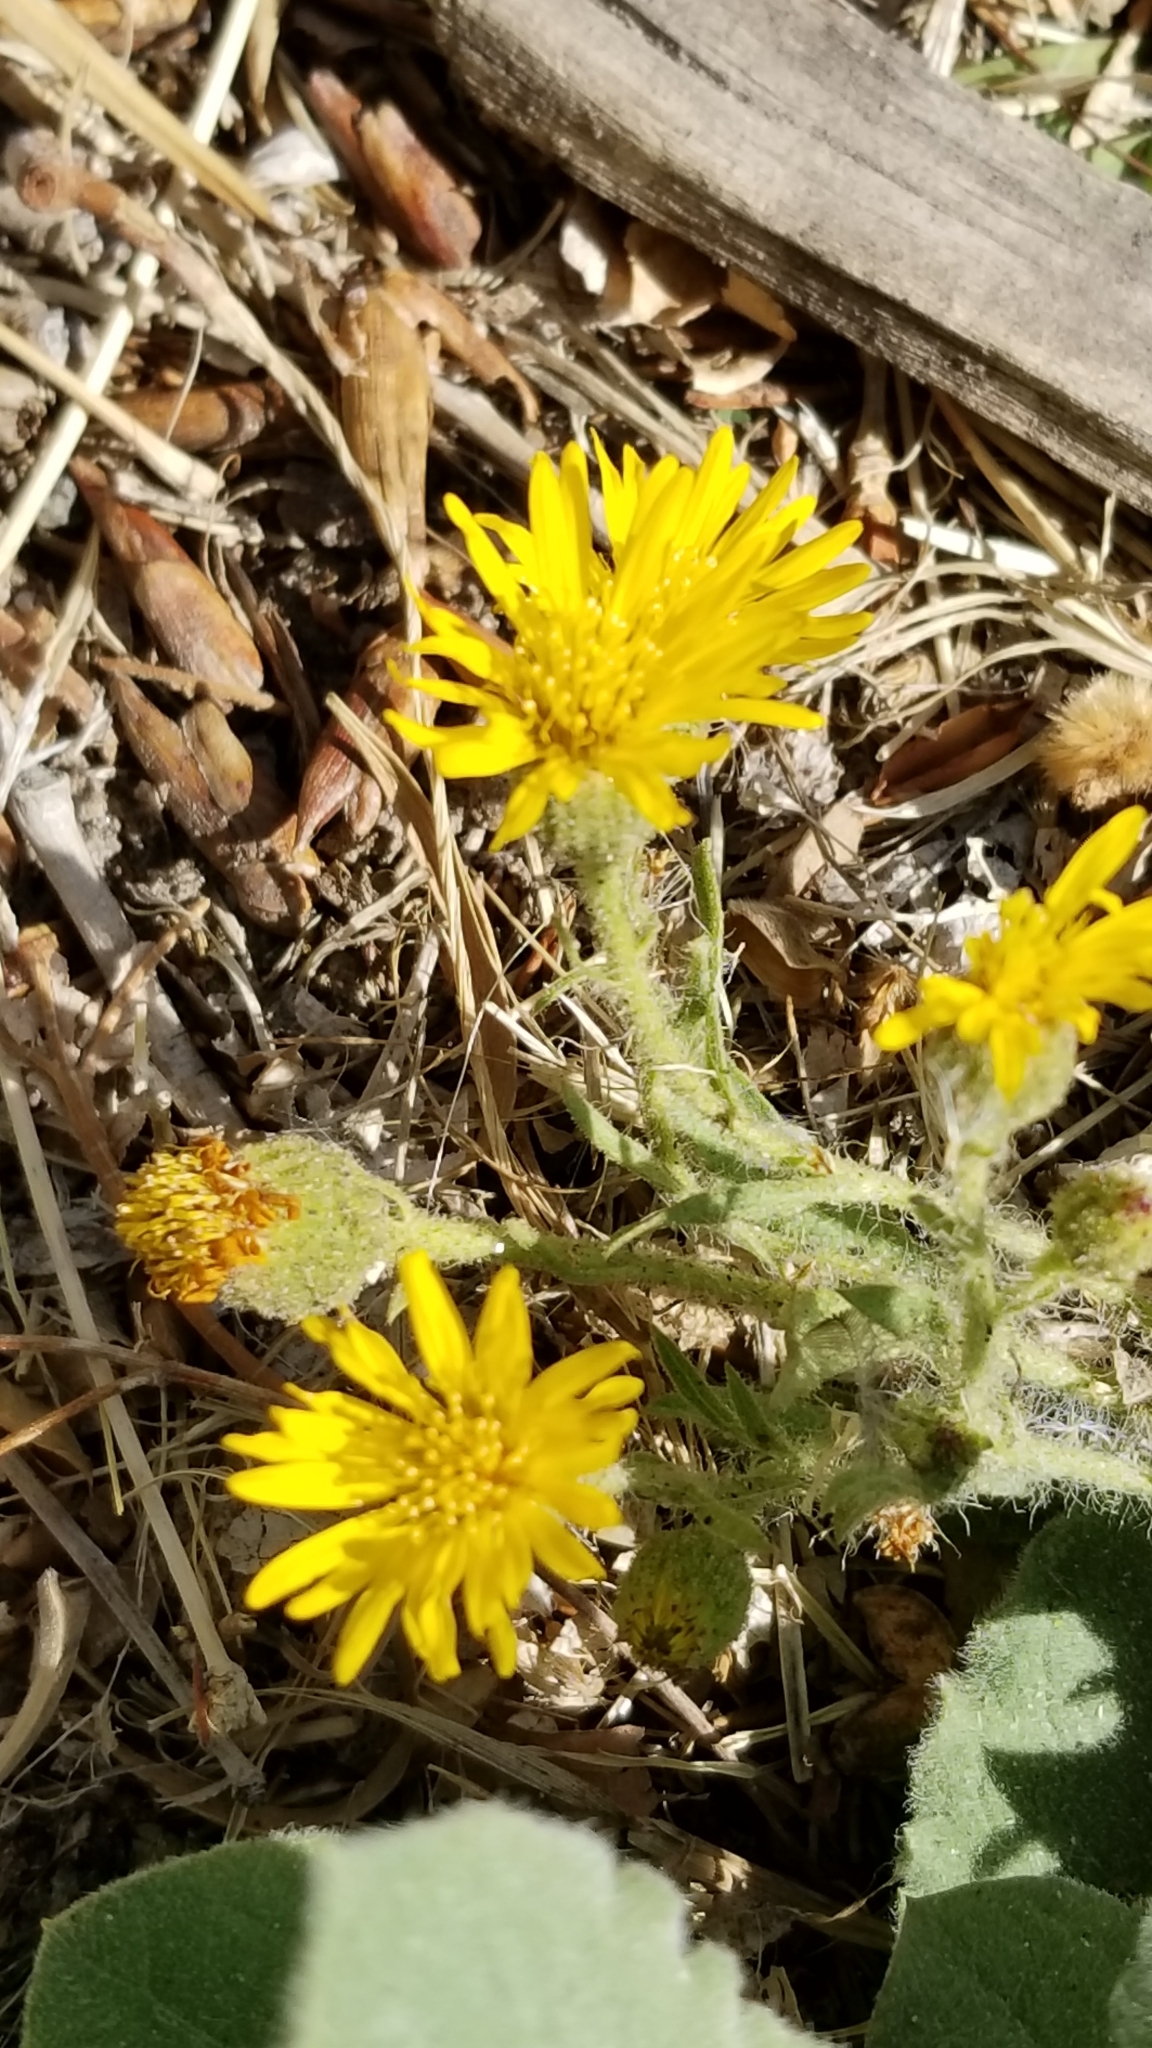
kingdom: Plantae
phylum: Tracheophyta
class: Magnoliopsida
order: Asterales
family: Asteraceae
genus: Heterotheca
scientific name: Heterotheca grandiflora
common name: Telegraphweed
